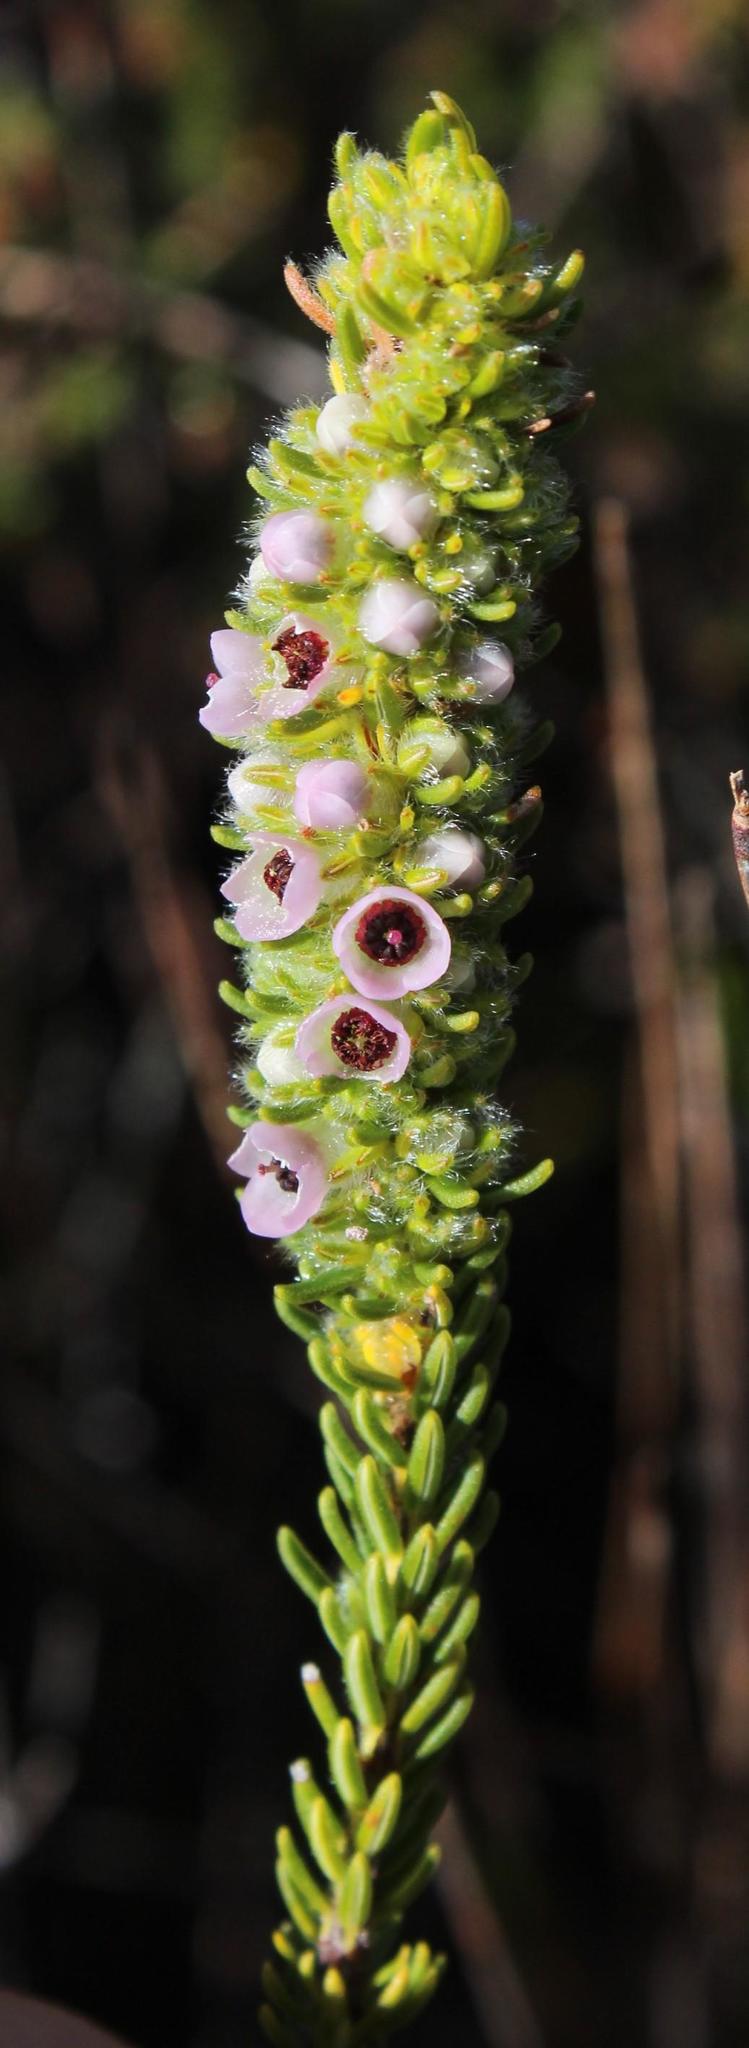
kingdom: Plantae
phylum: Tracheophyta
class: Magnoliopsida
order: Ericales
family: Ericaceae
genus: Erica
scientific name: Erica pyxidiflora
